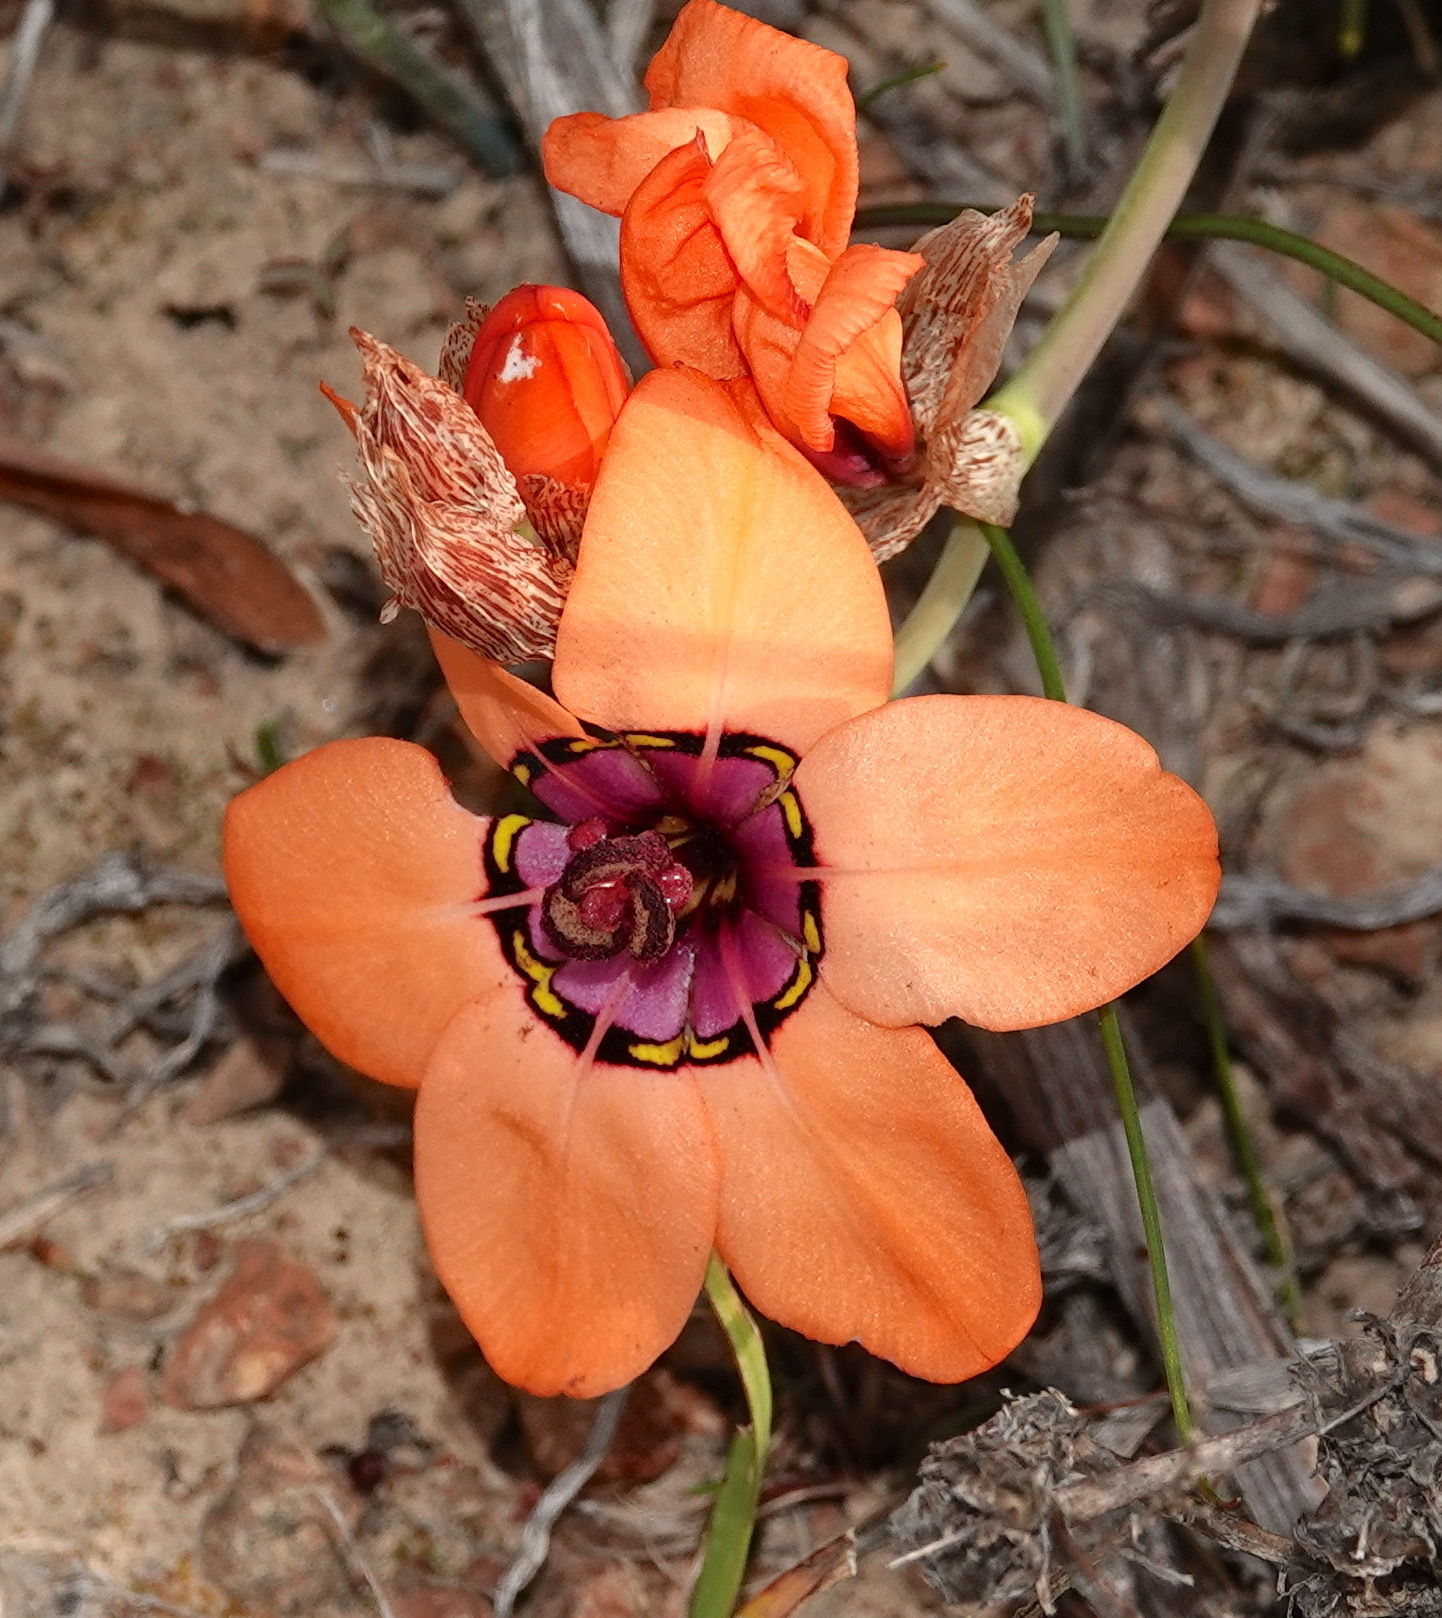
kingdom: Plantae
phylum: Tracheophyta
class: Liliopsida
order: Asparagales
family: Iridaceae
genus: Sparaxis
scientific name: Sparaxis elegans
